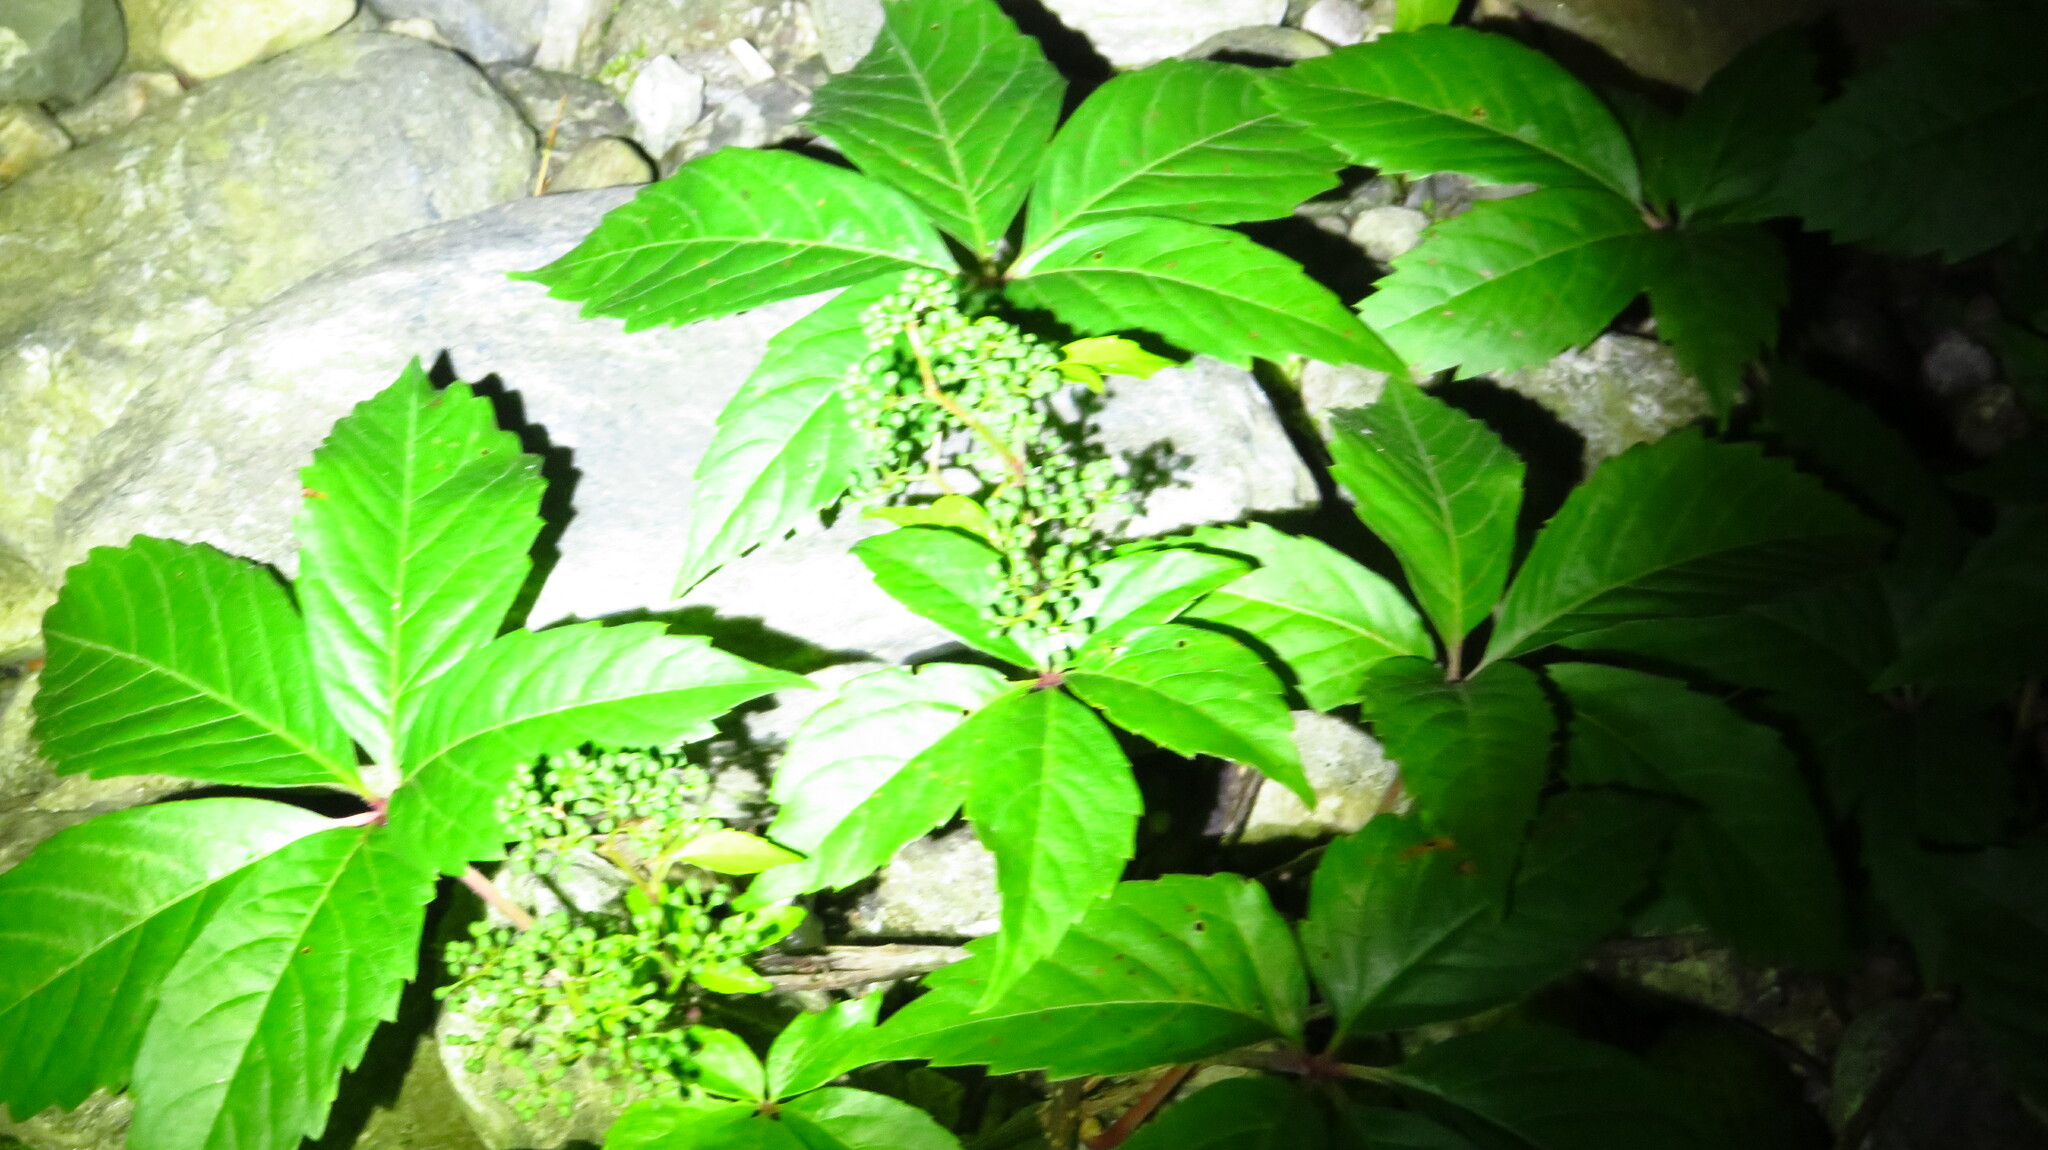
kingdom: Plantae
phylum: Tracheophyta
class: Magnoliopsida
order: Vitales
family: Vitaceae
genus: Parthenocissus
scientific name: Parthenocissus quinquefolia
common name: Virginia-creeper
